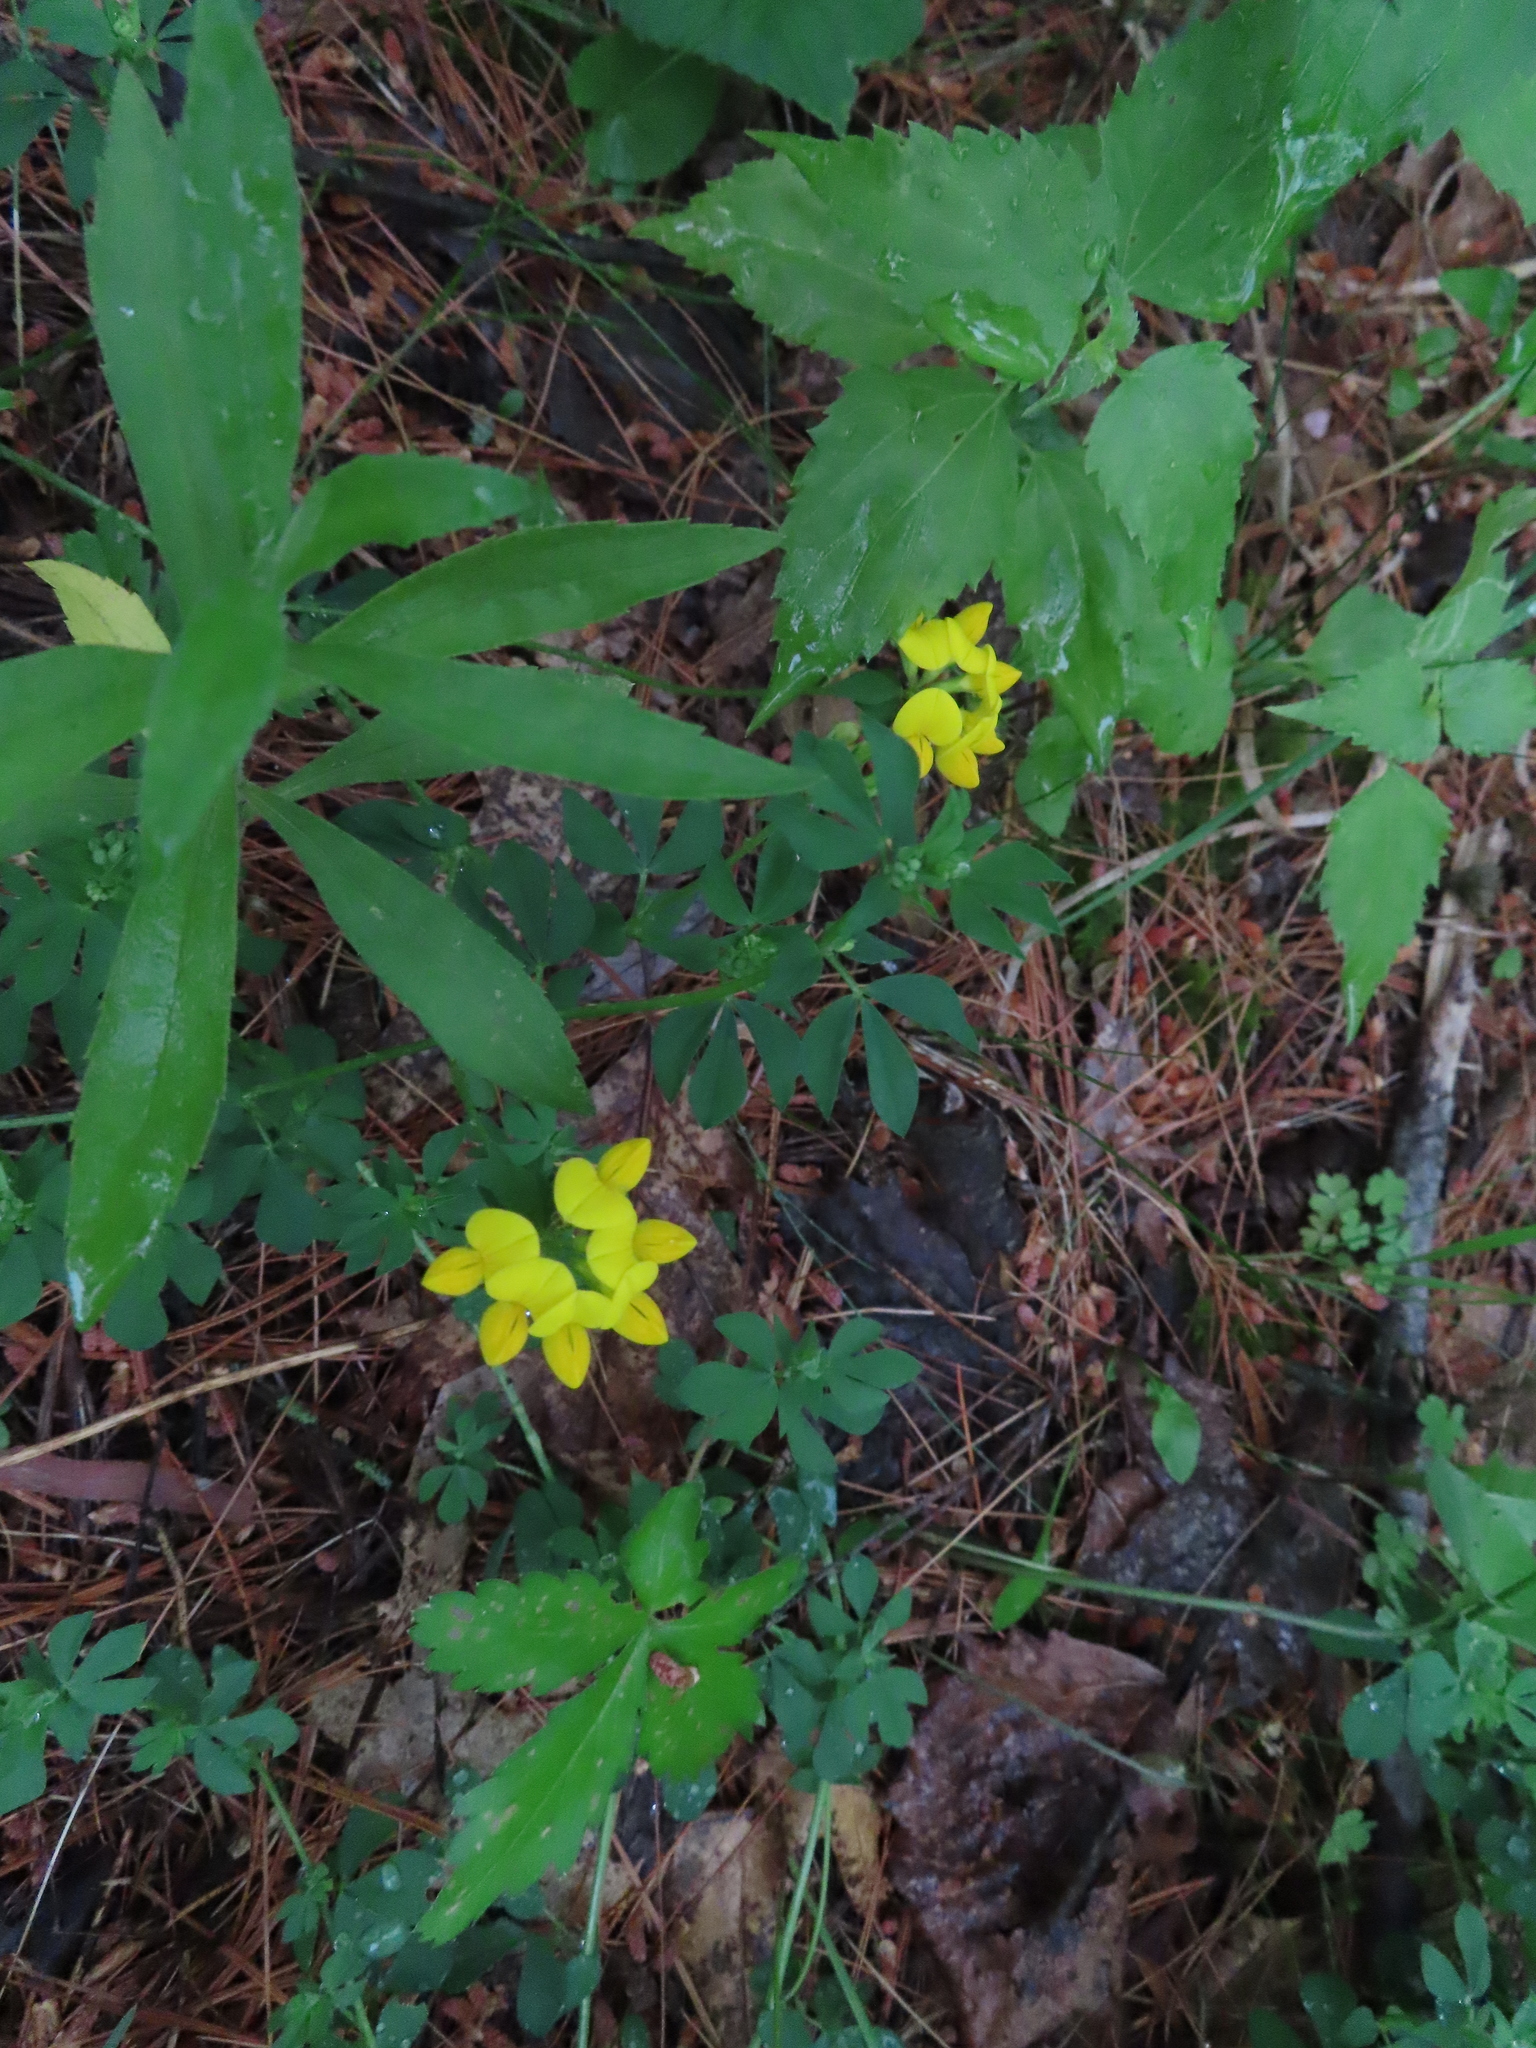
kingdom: Plantae
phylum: Tracheophyta
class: Magnoliopsida
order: Fabales
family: Fabaceae
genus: Lotus
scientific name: Lotus corniculatus
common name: Common bird's-foot-trefoil
